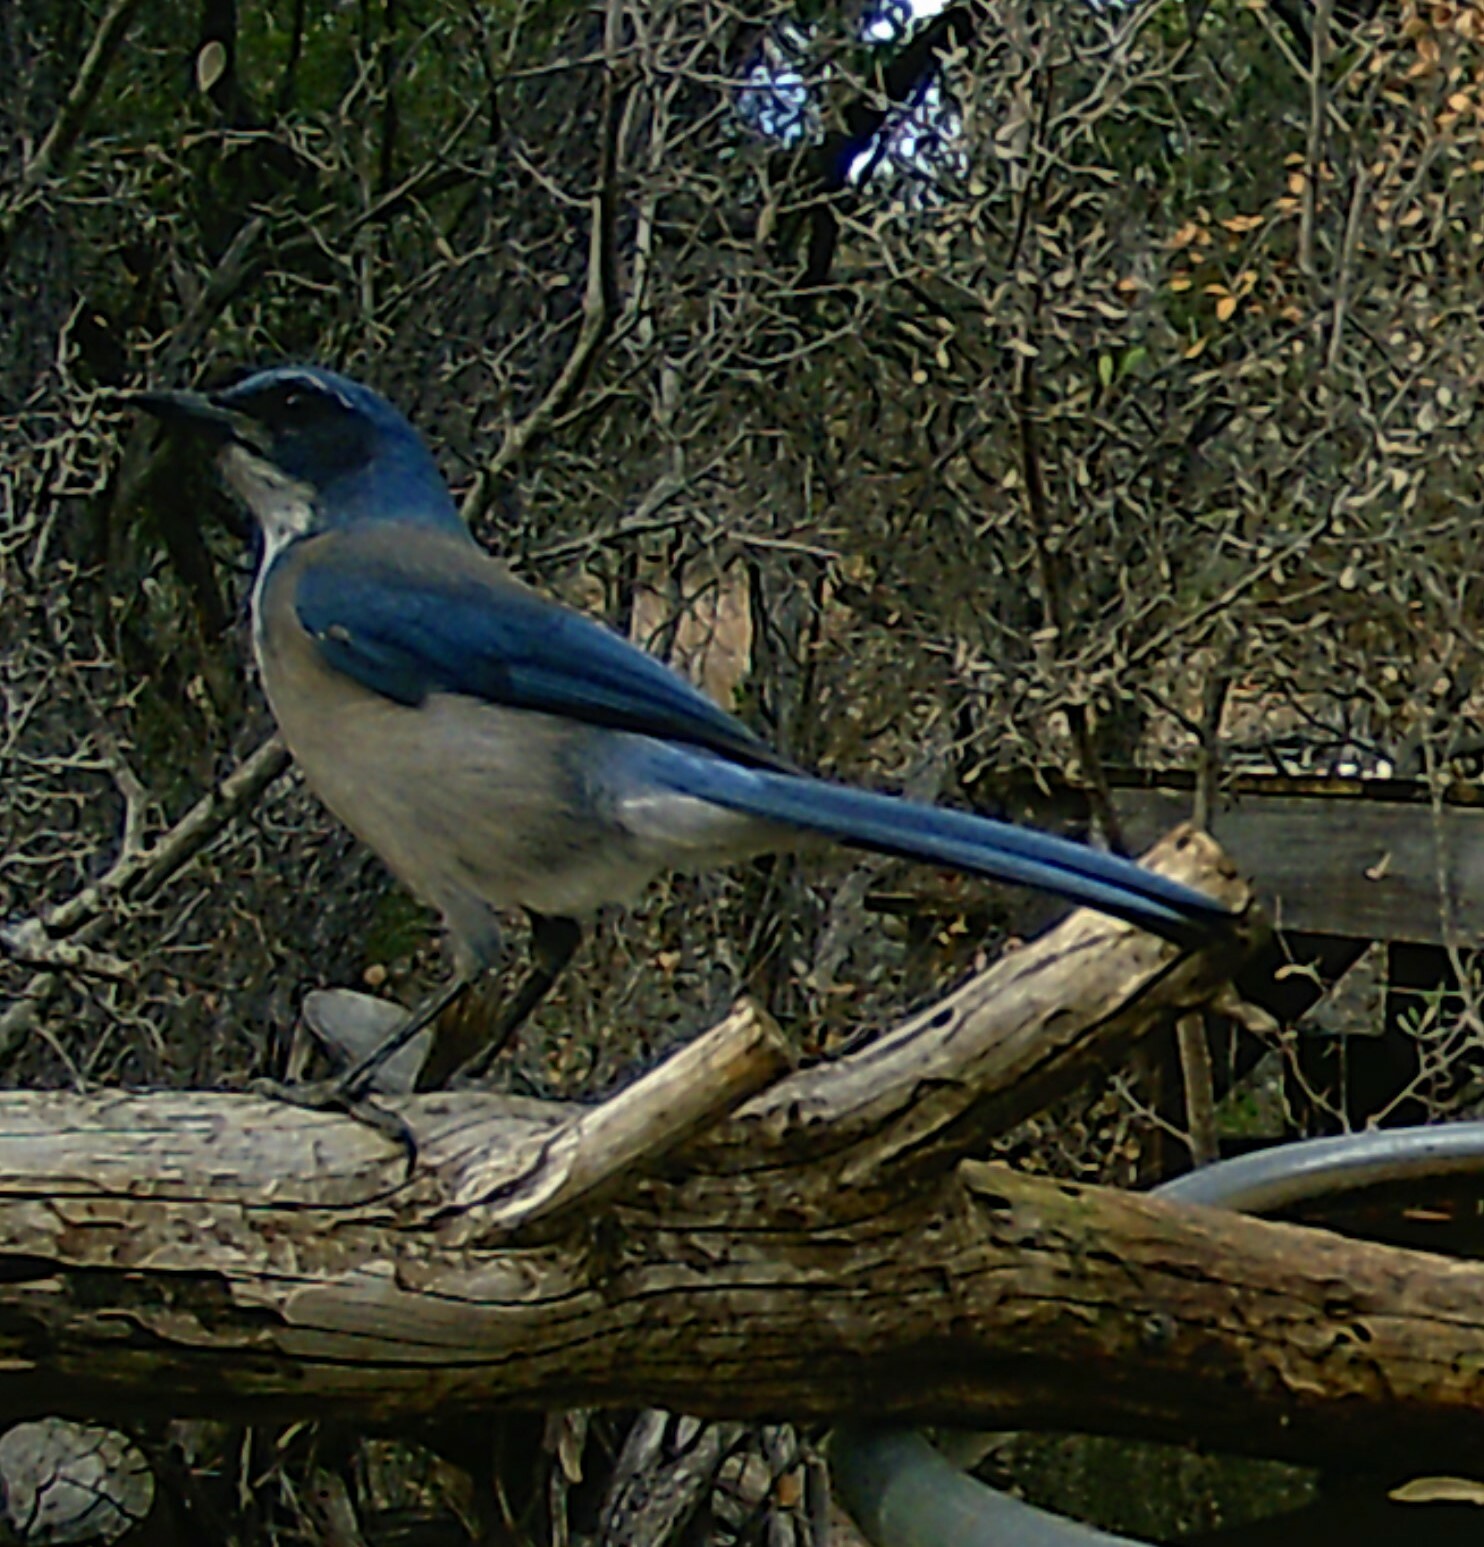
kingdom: Animalia
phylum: Chordata
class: Aves
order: Passeriformes
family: Corvidae
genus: Aphelocoma
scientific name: Aphelocoma woodhouseii
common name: Woodhouse's scrub-jay
